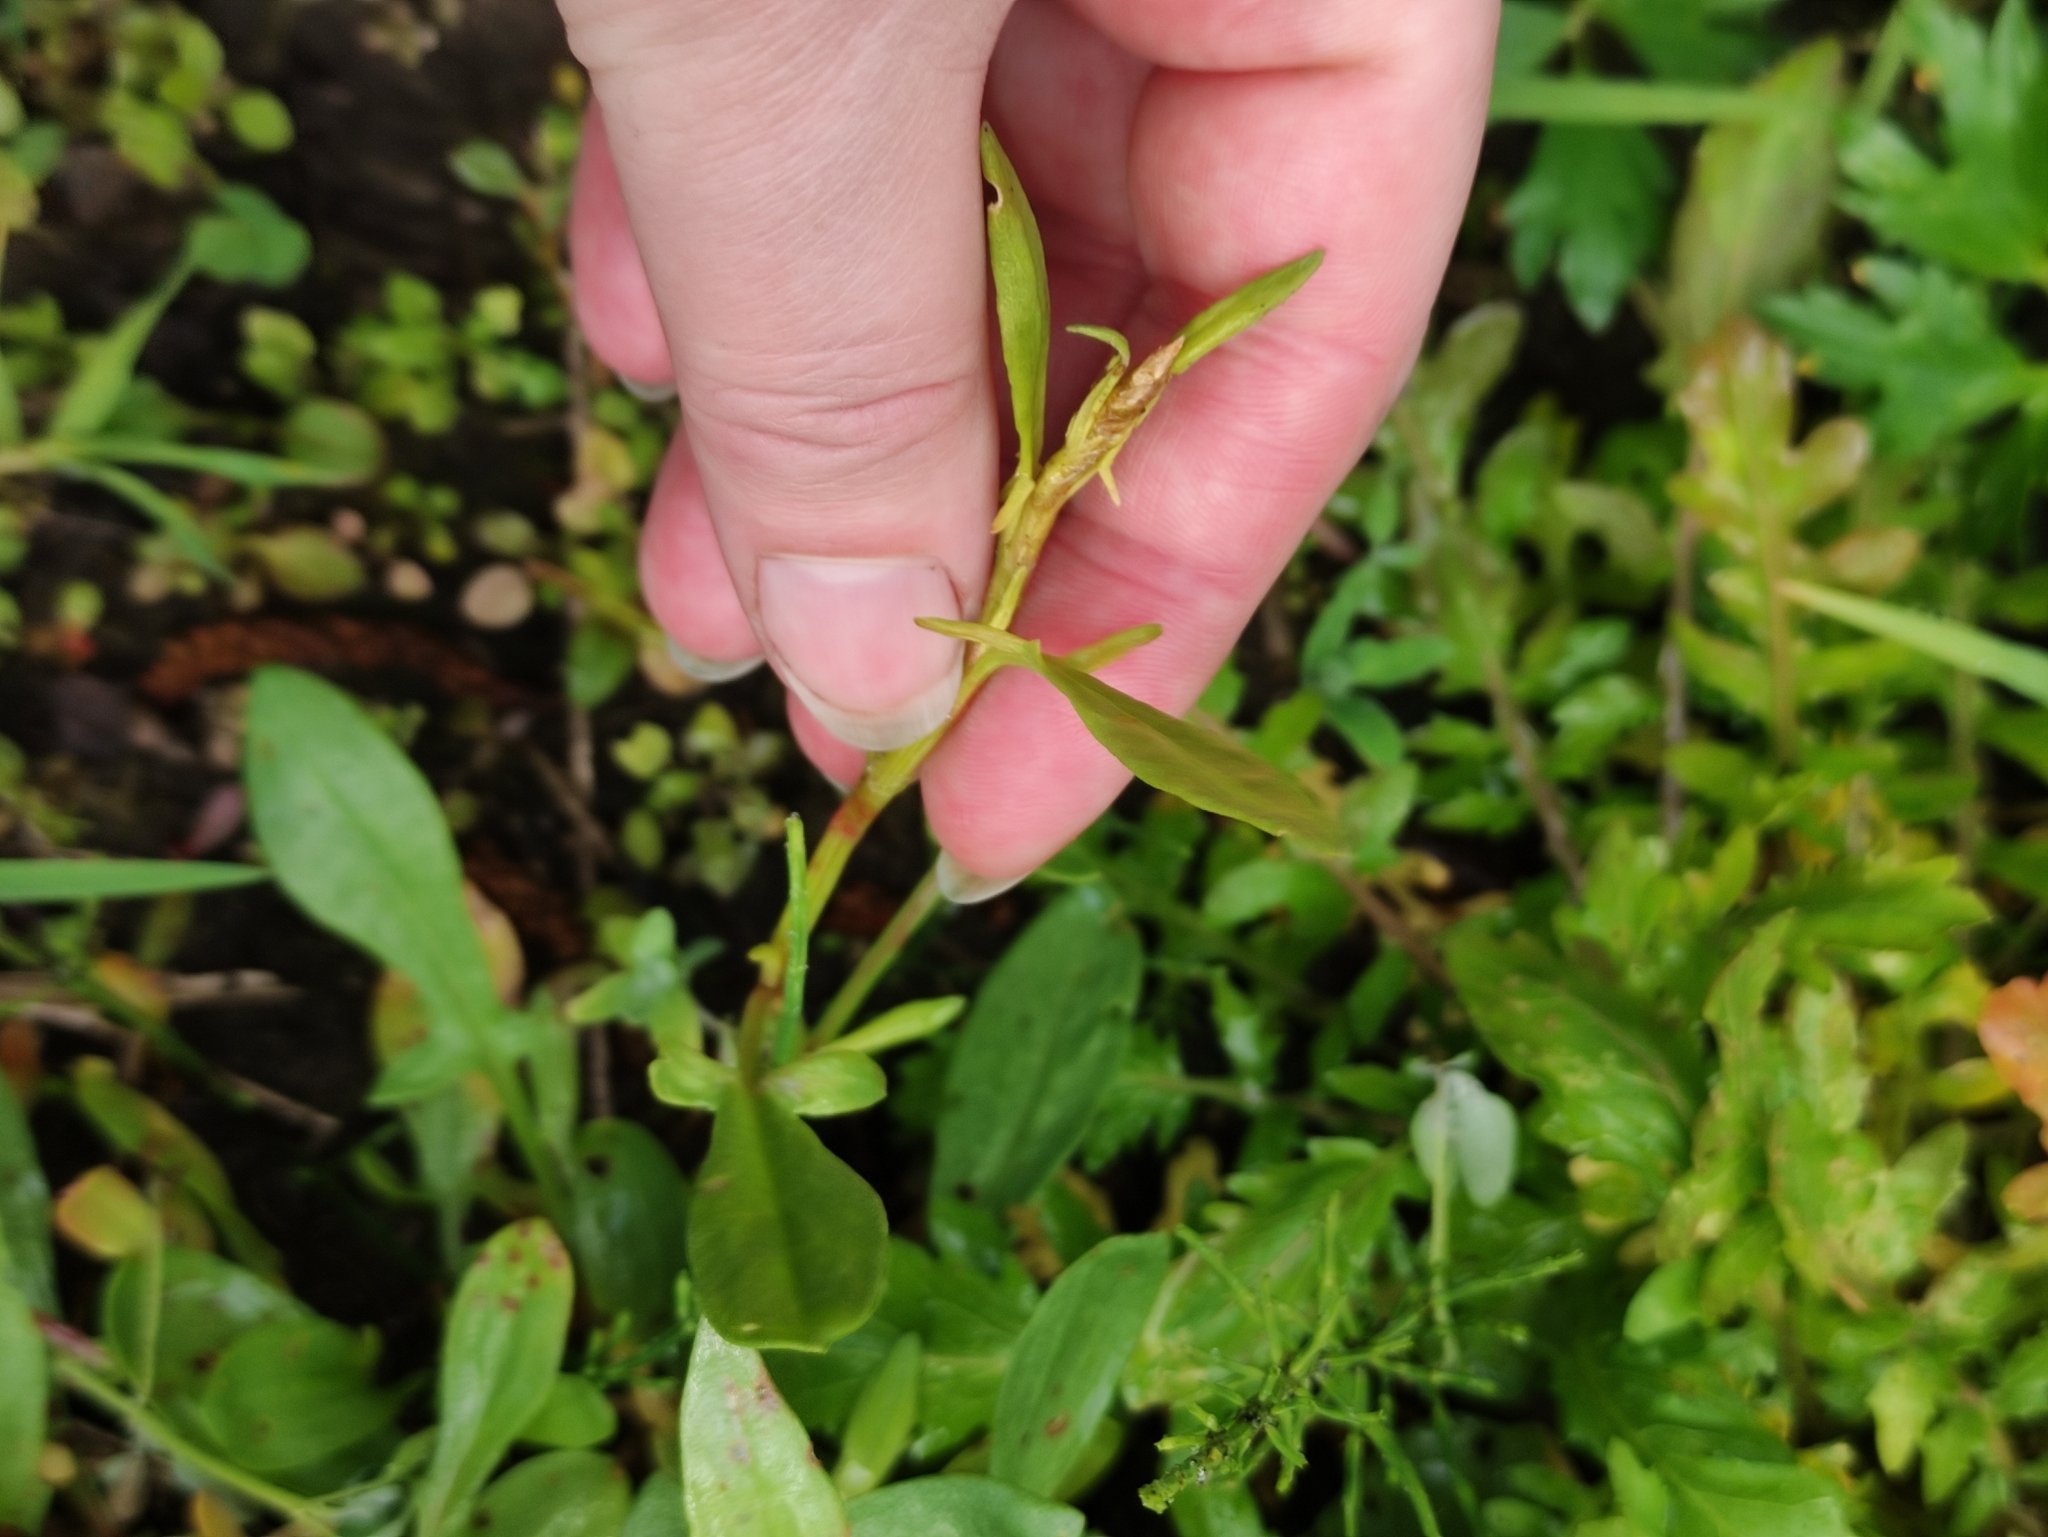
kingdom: Plantae
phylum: Tracheophyta
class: Magnoliopsida
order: Caryophyllales
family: Polygonaceae
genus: Rumex
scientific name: Rumex acetosella
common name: Common sheep sorrel
